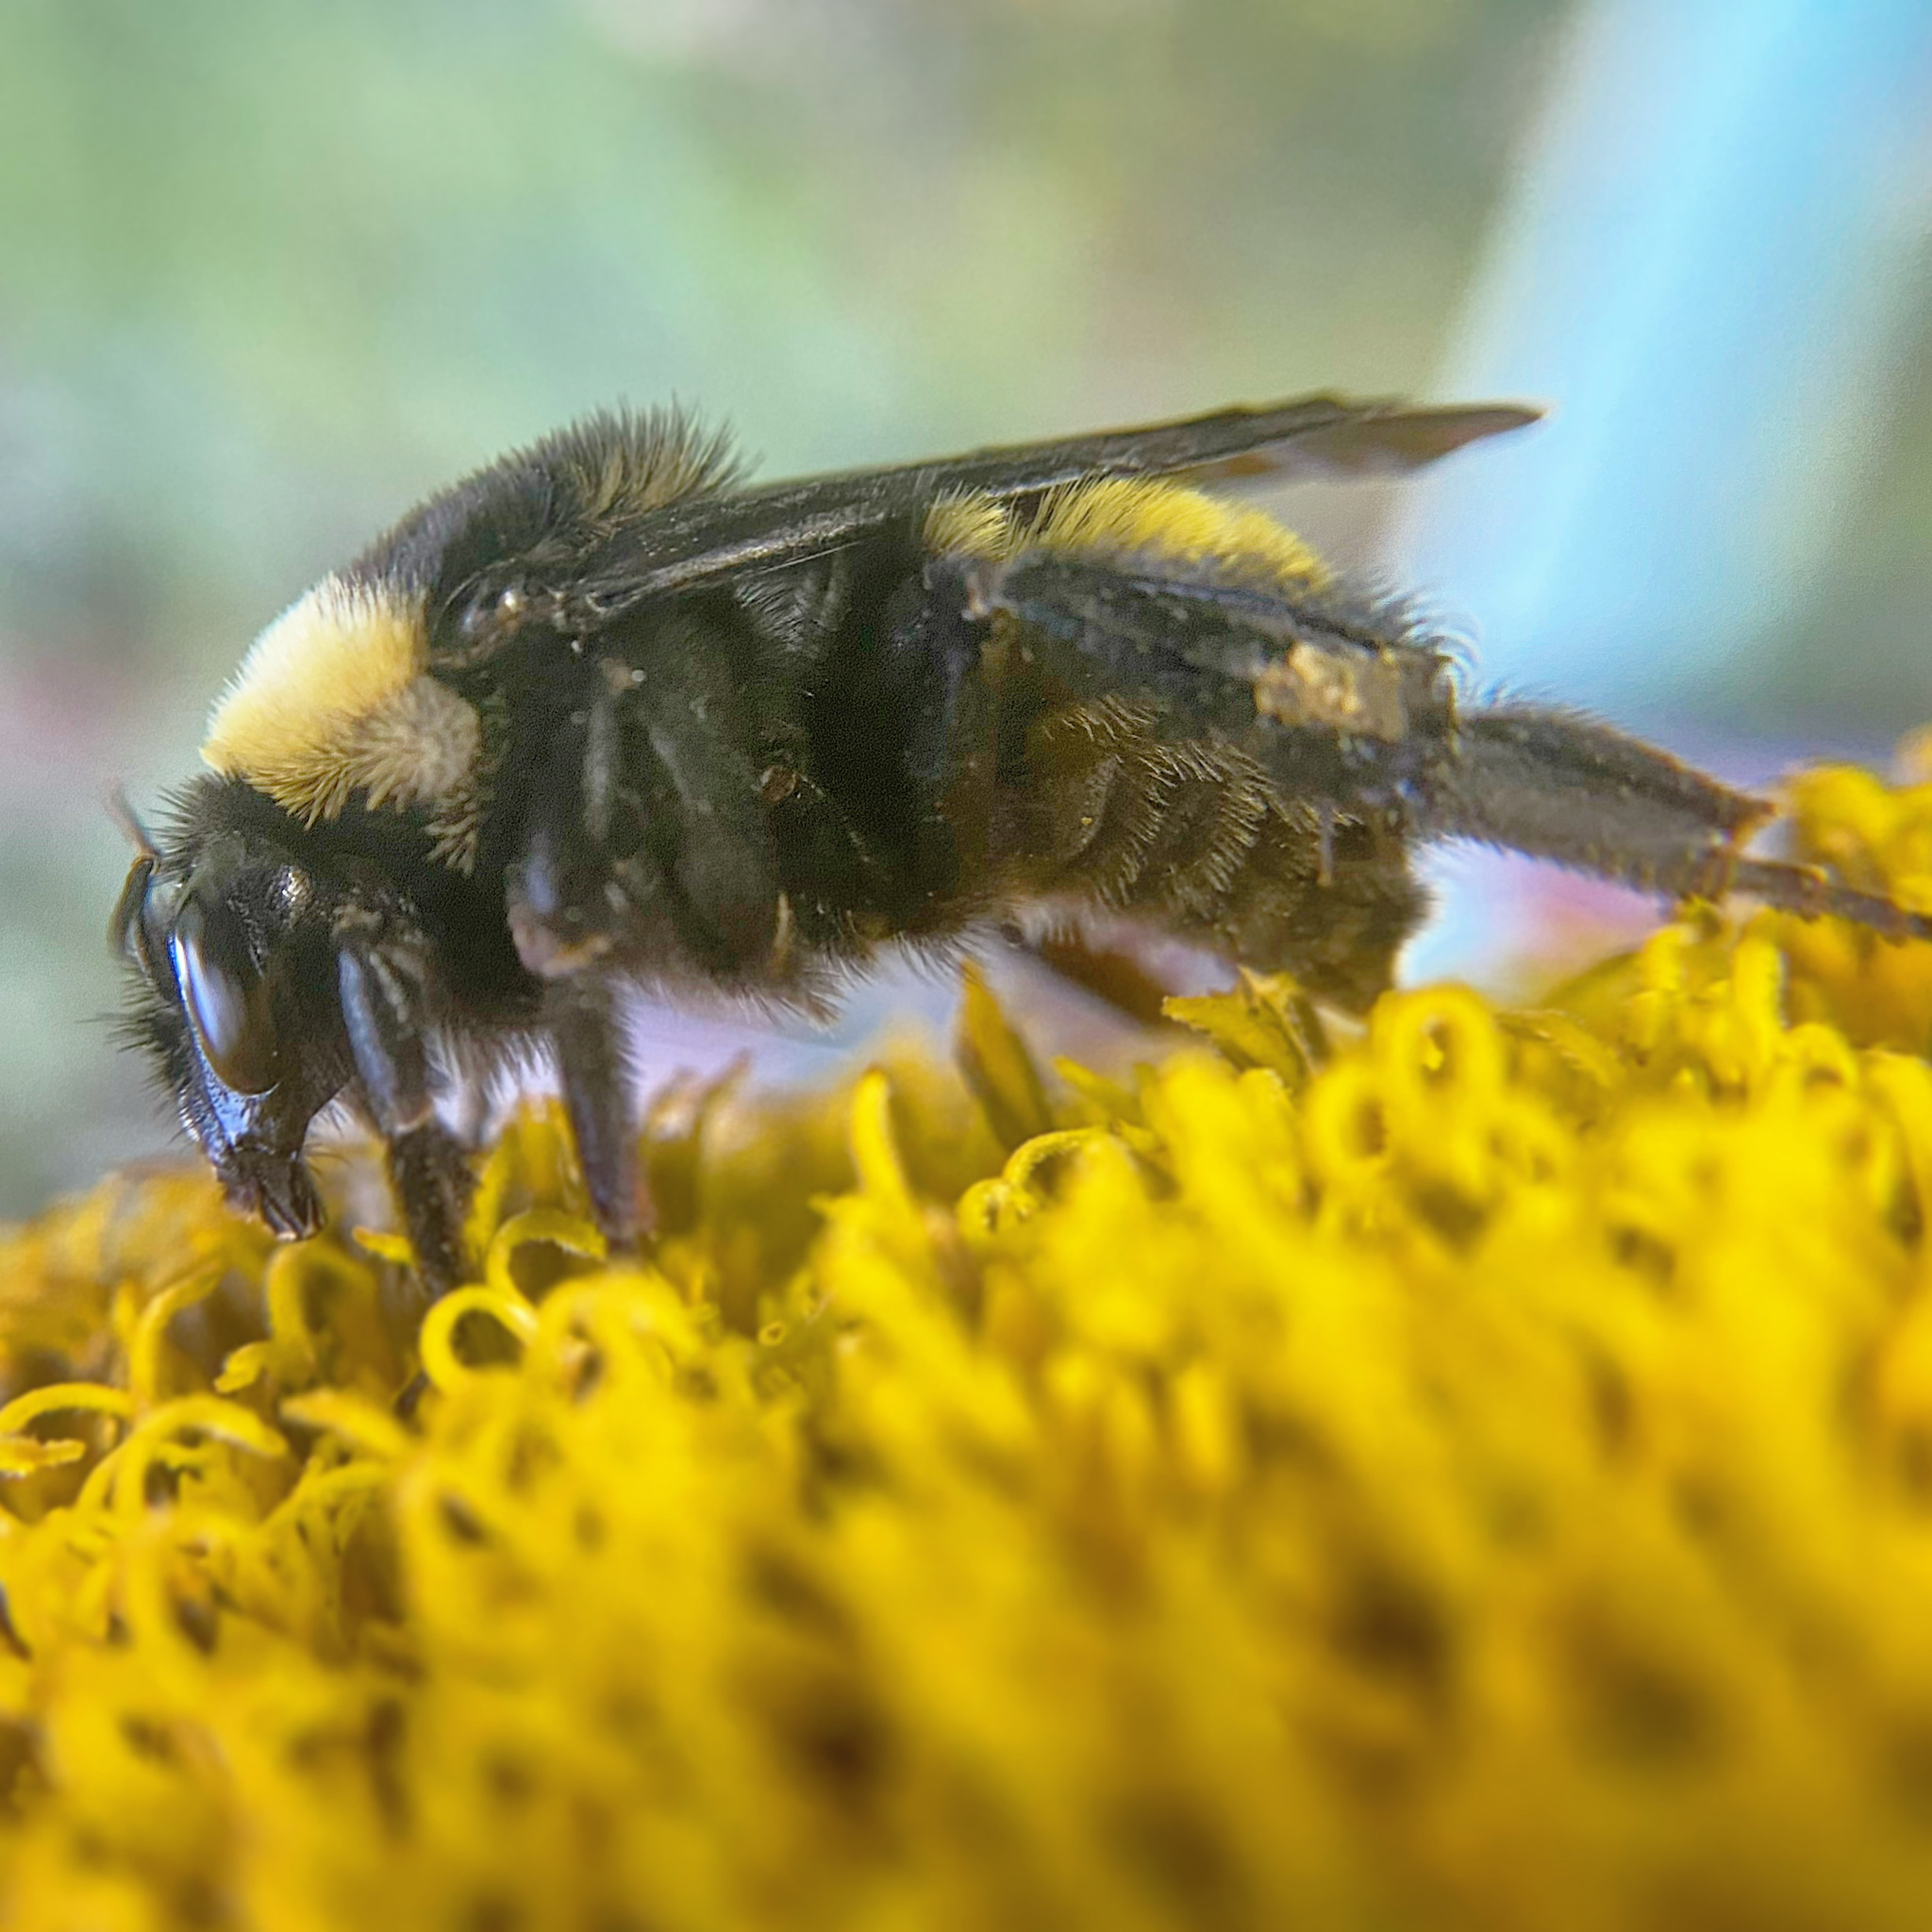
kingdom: Animalia
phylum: Arthropoda
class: Insecta
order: Hymenoptera
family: Apidae
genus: Bombus
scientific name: Bombus pensylvanicus
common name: Bumble bee
